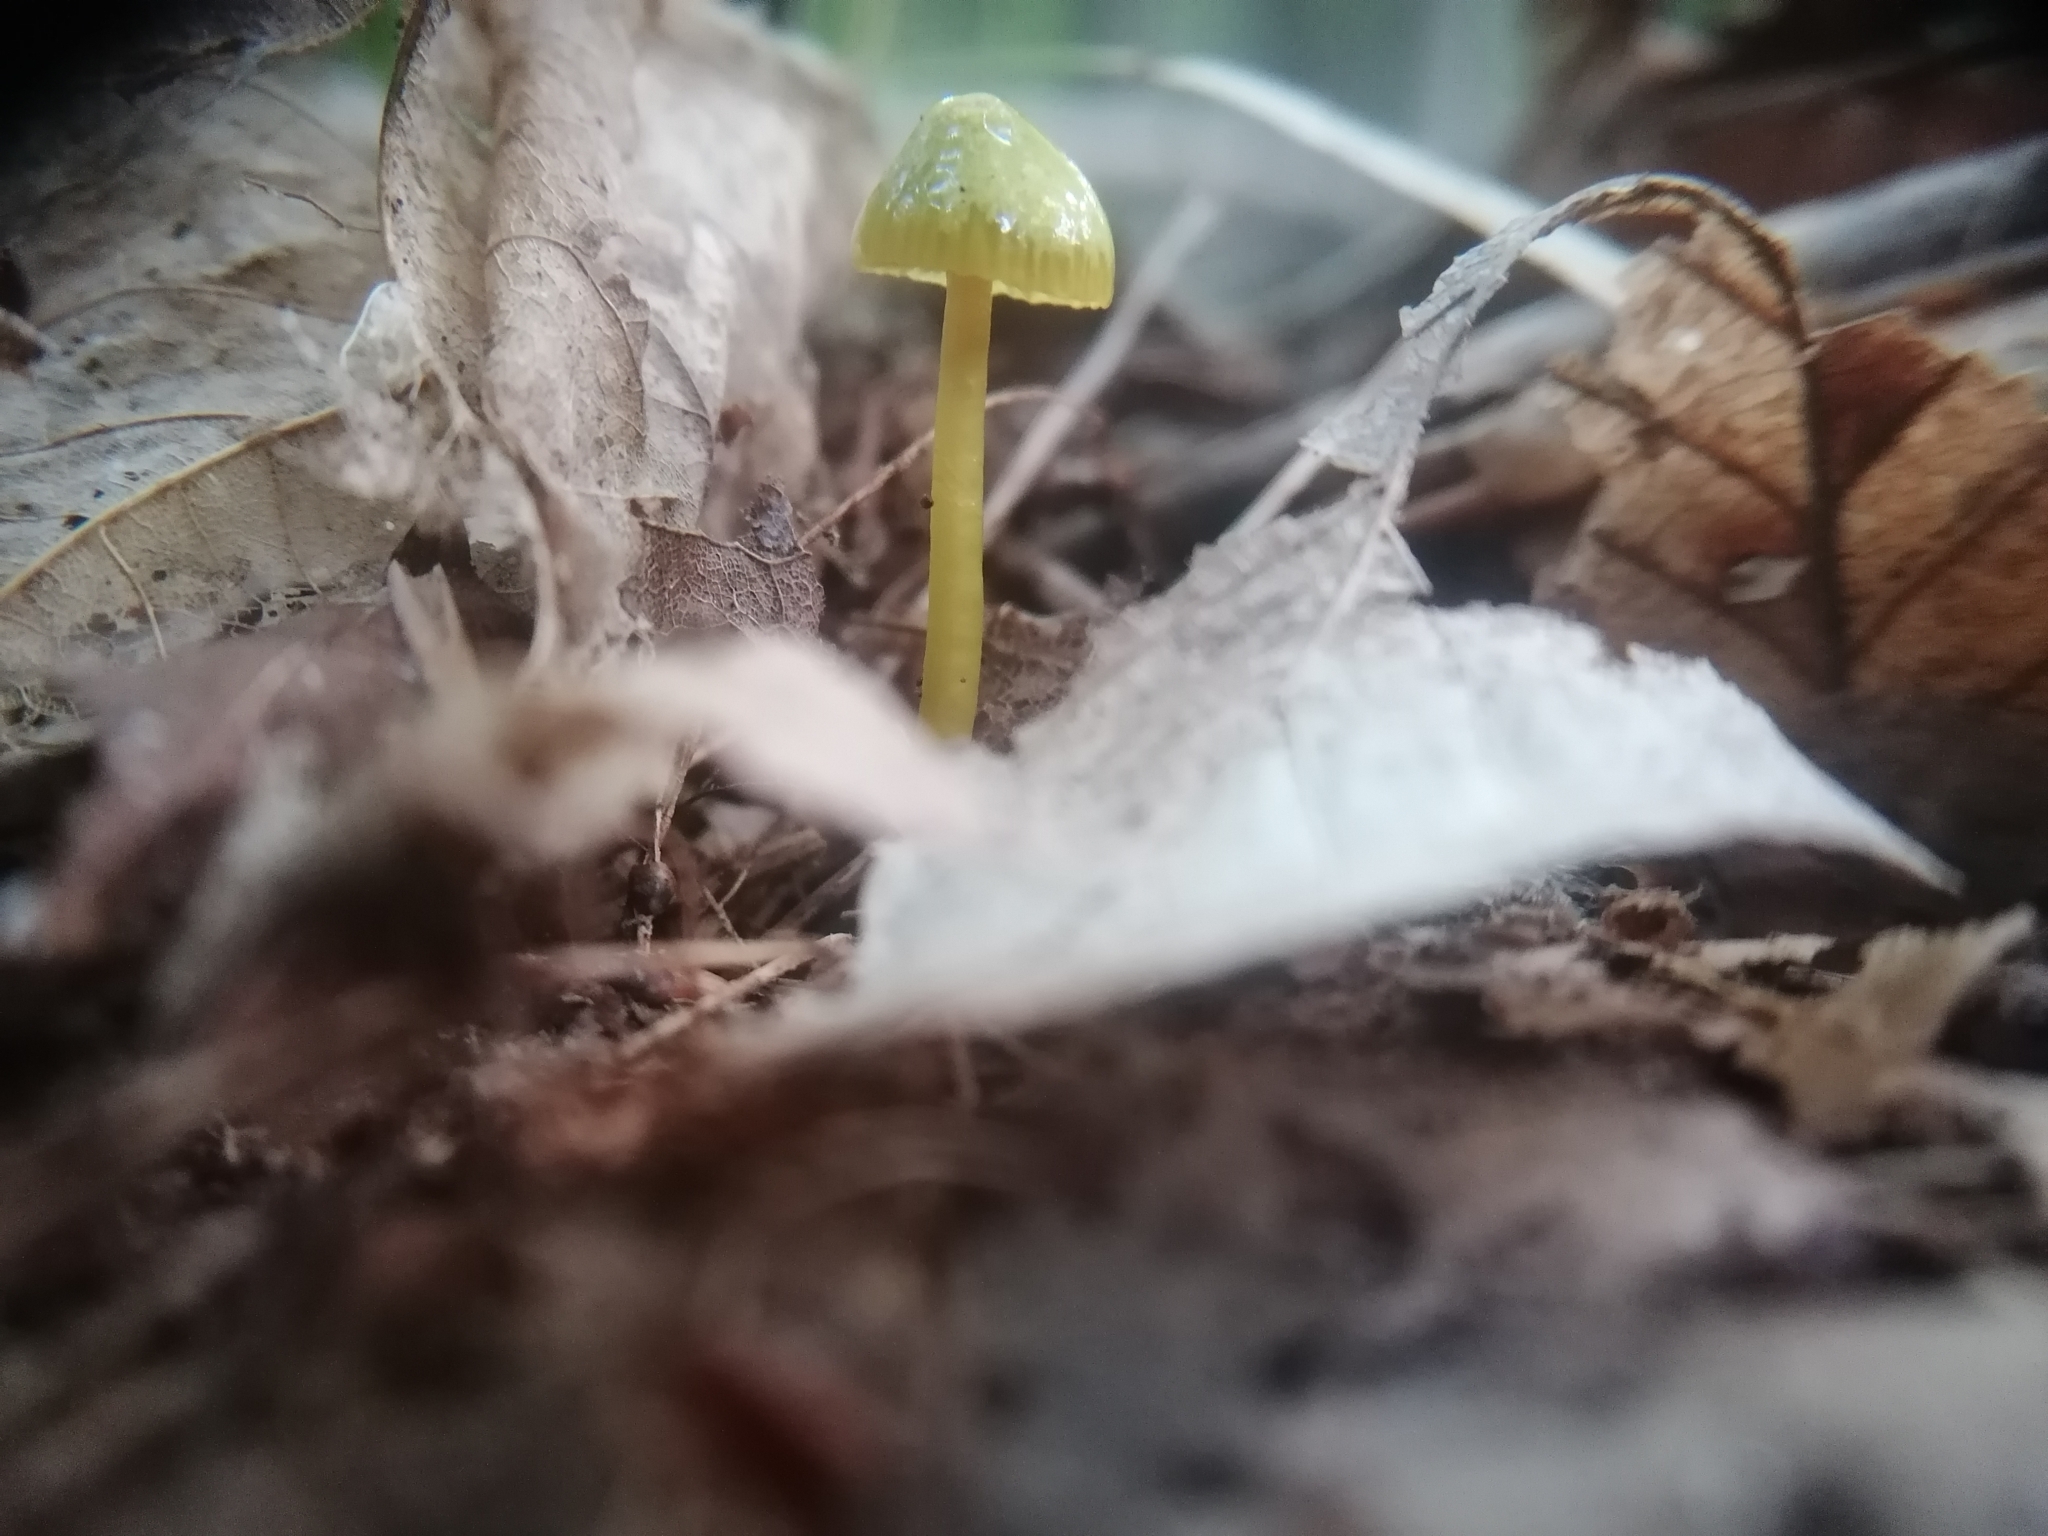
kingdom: Fungi
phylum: Basidiomycota
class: Agaricomycetes
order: Agaricales
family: Hygrophoraceae
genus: Gliophorus
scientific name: Gliophorus psittacinus
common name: Parrot wax-cap
